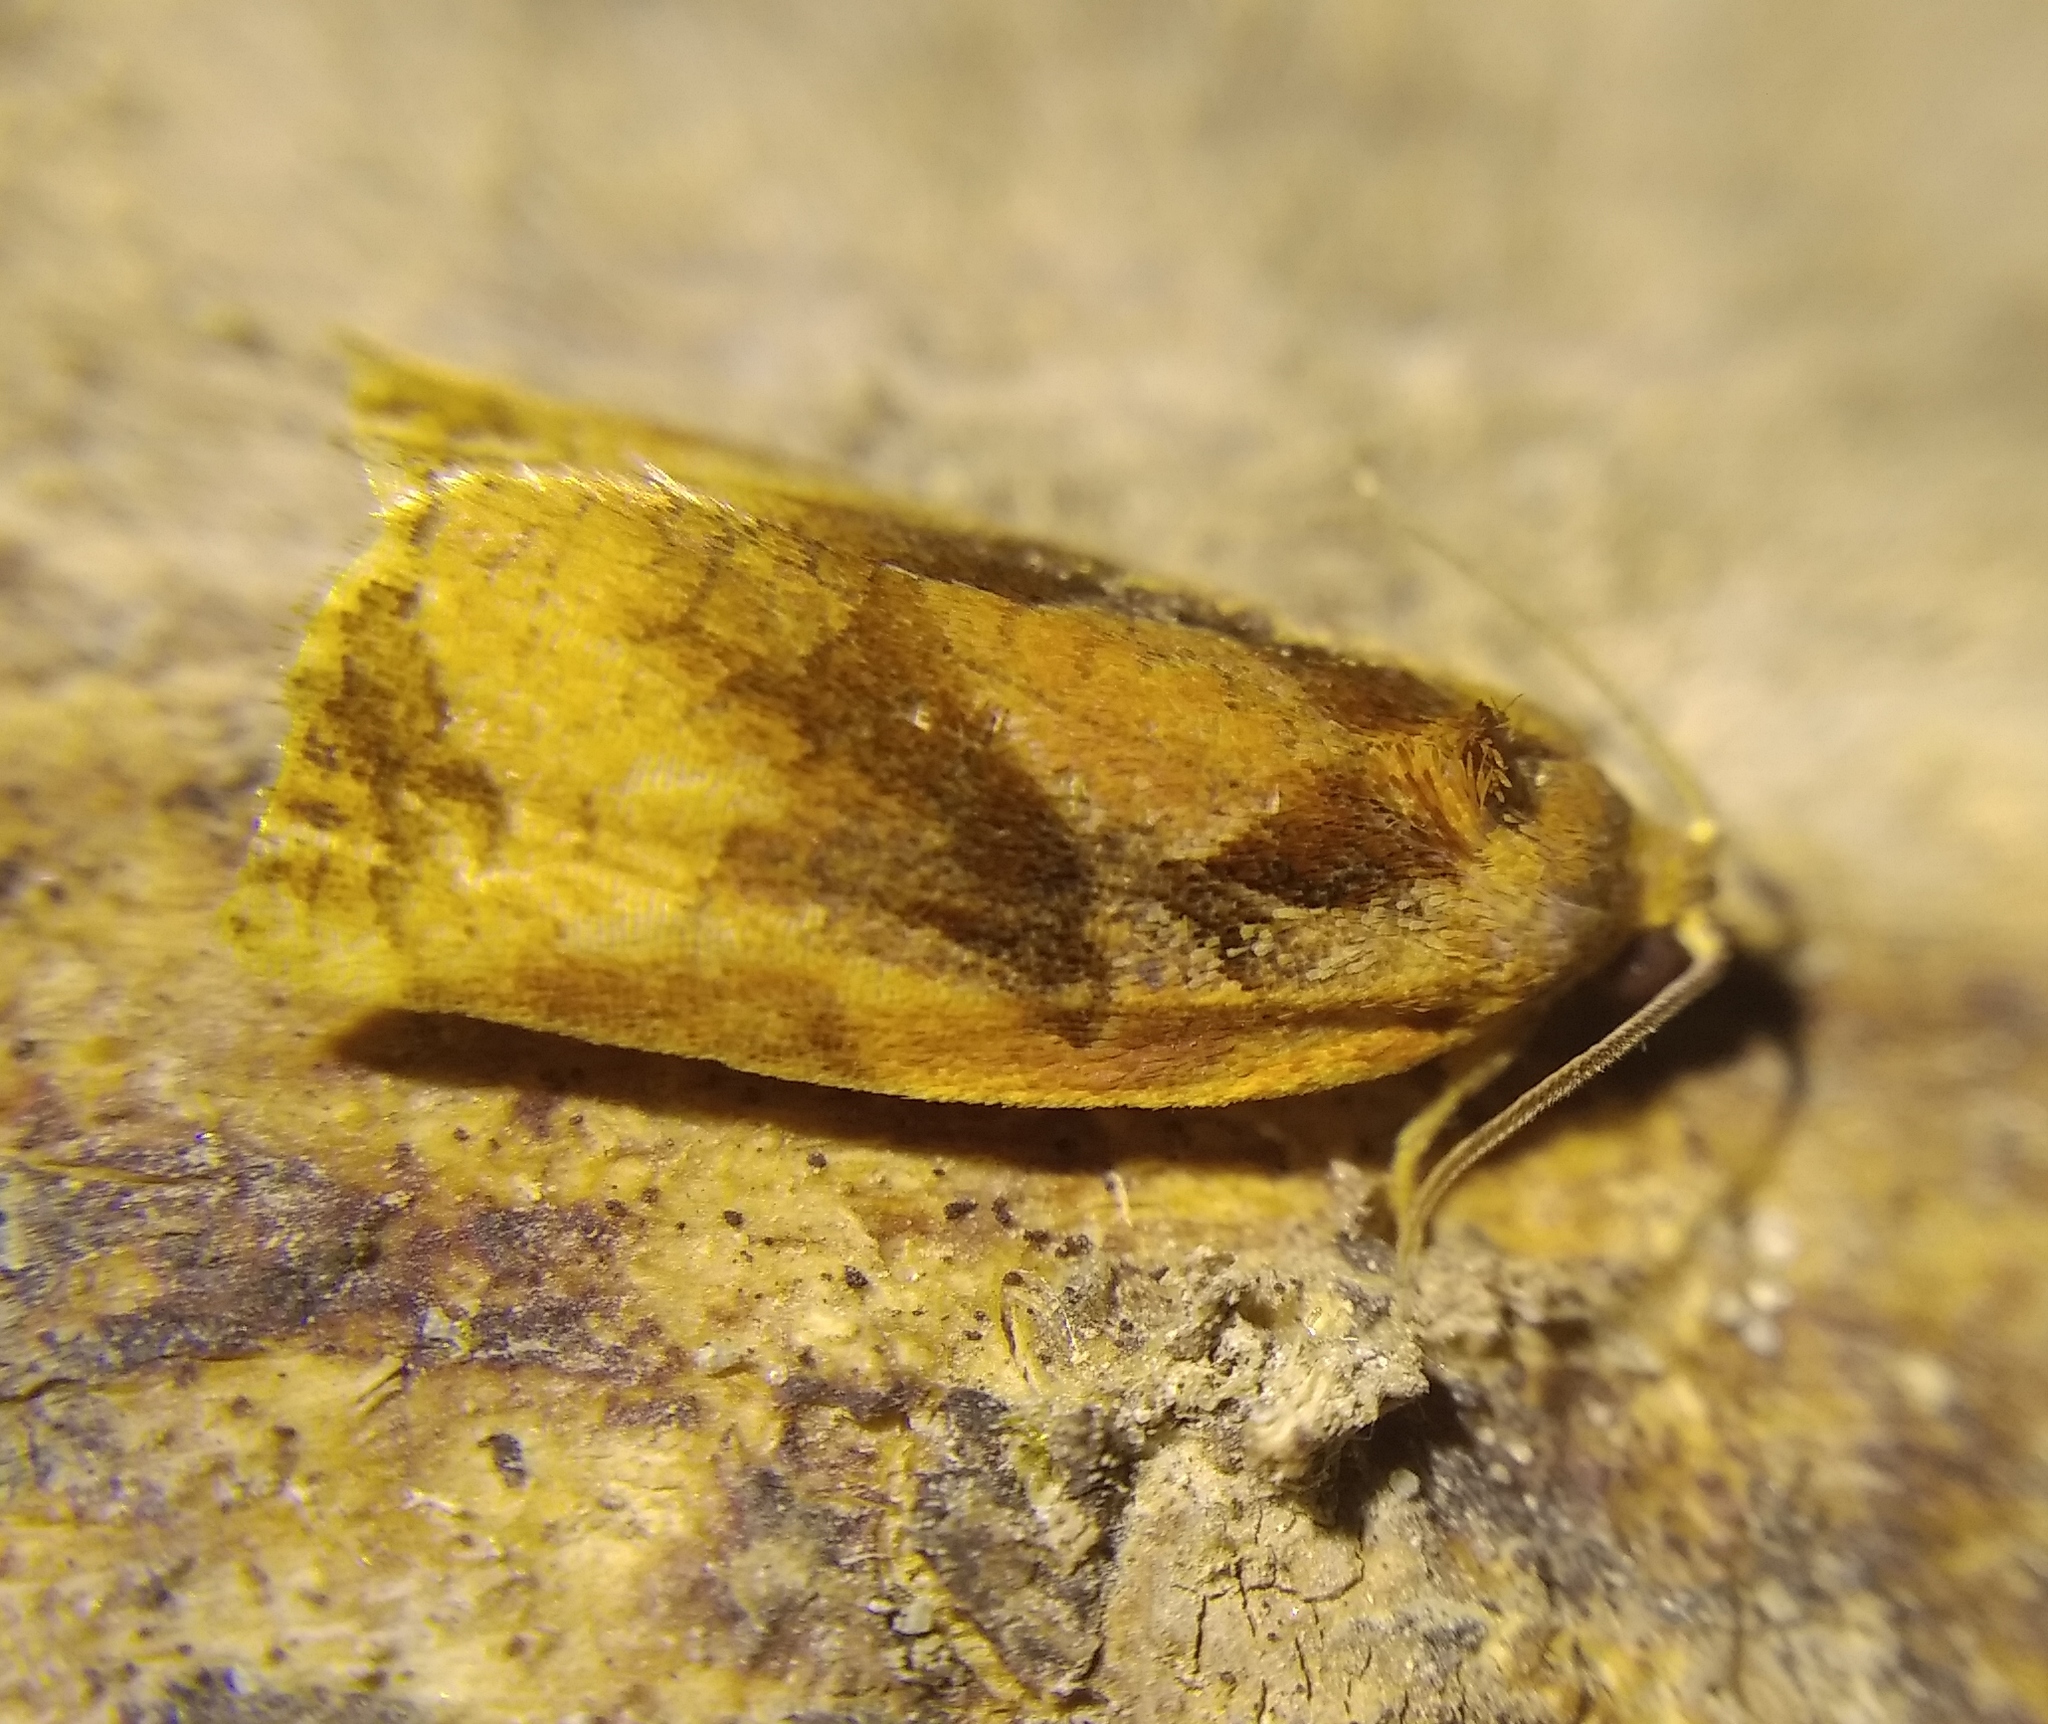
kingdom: Animalia
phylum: Arthropoda
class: Insecta
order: Lepidoptera
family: Tortricidae
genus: Archips
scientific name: Archips podana
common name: Large fruit-tree tortrix
